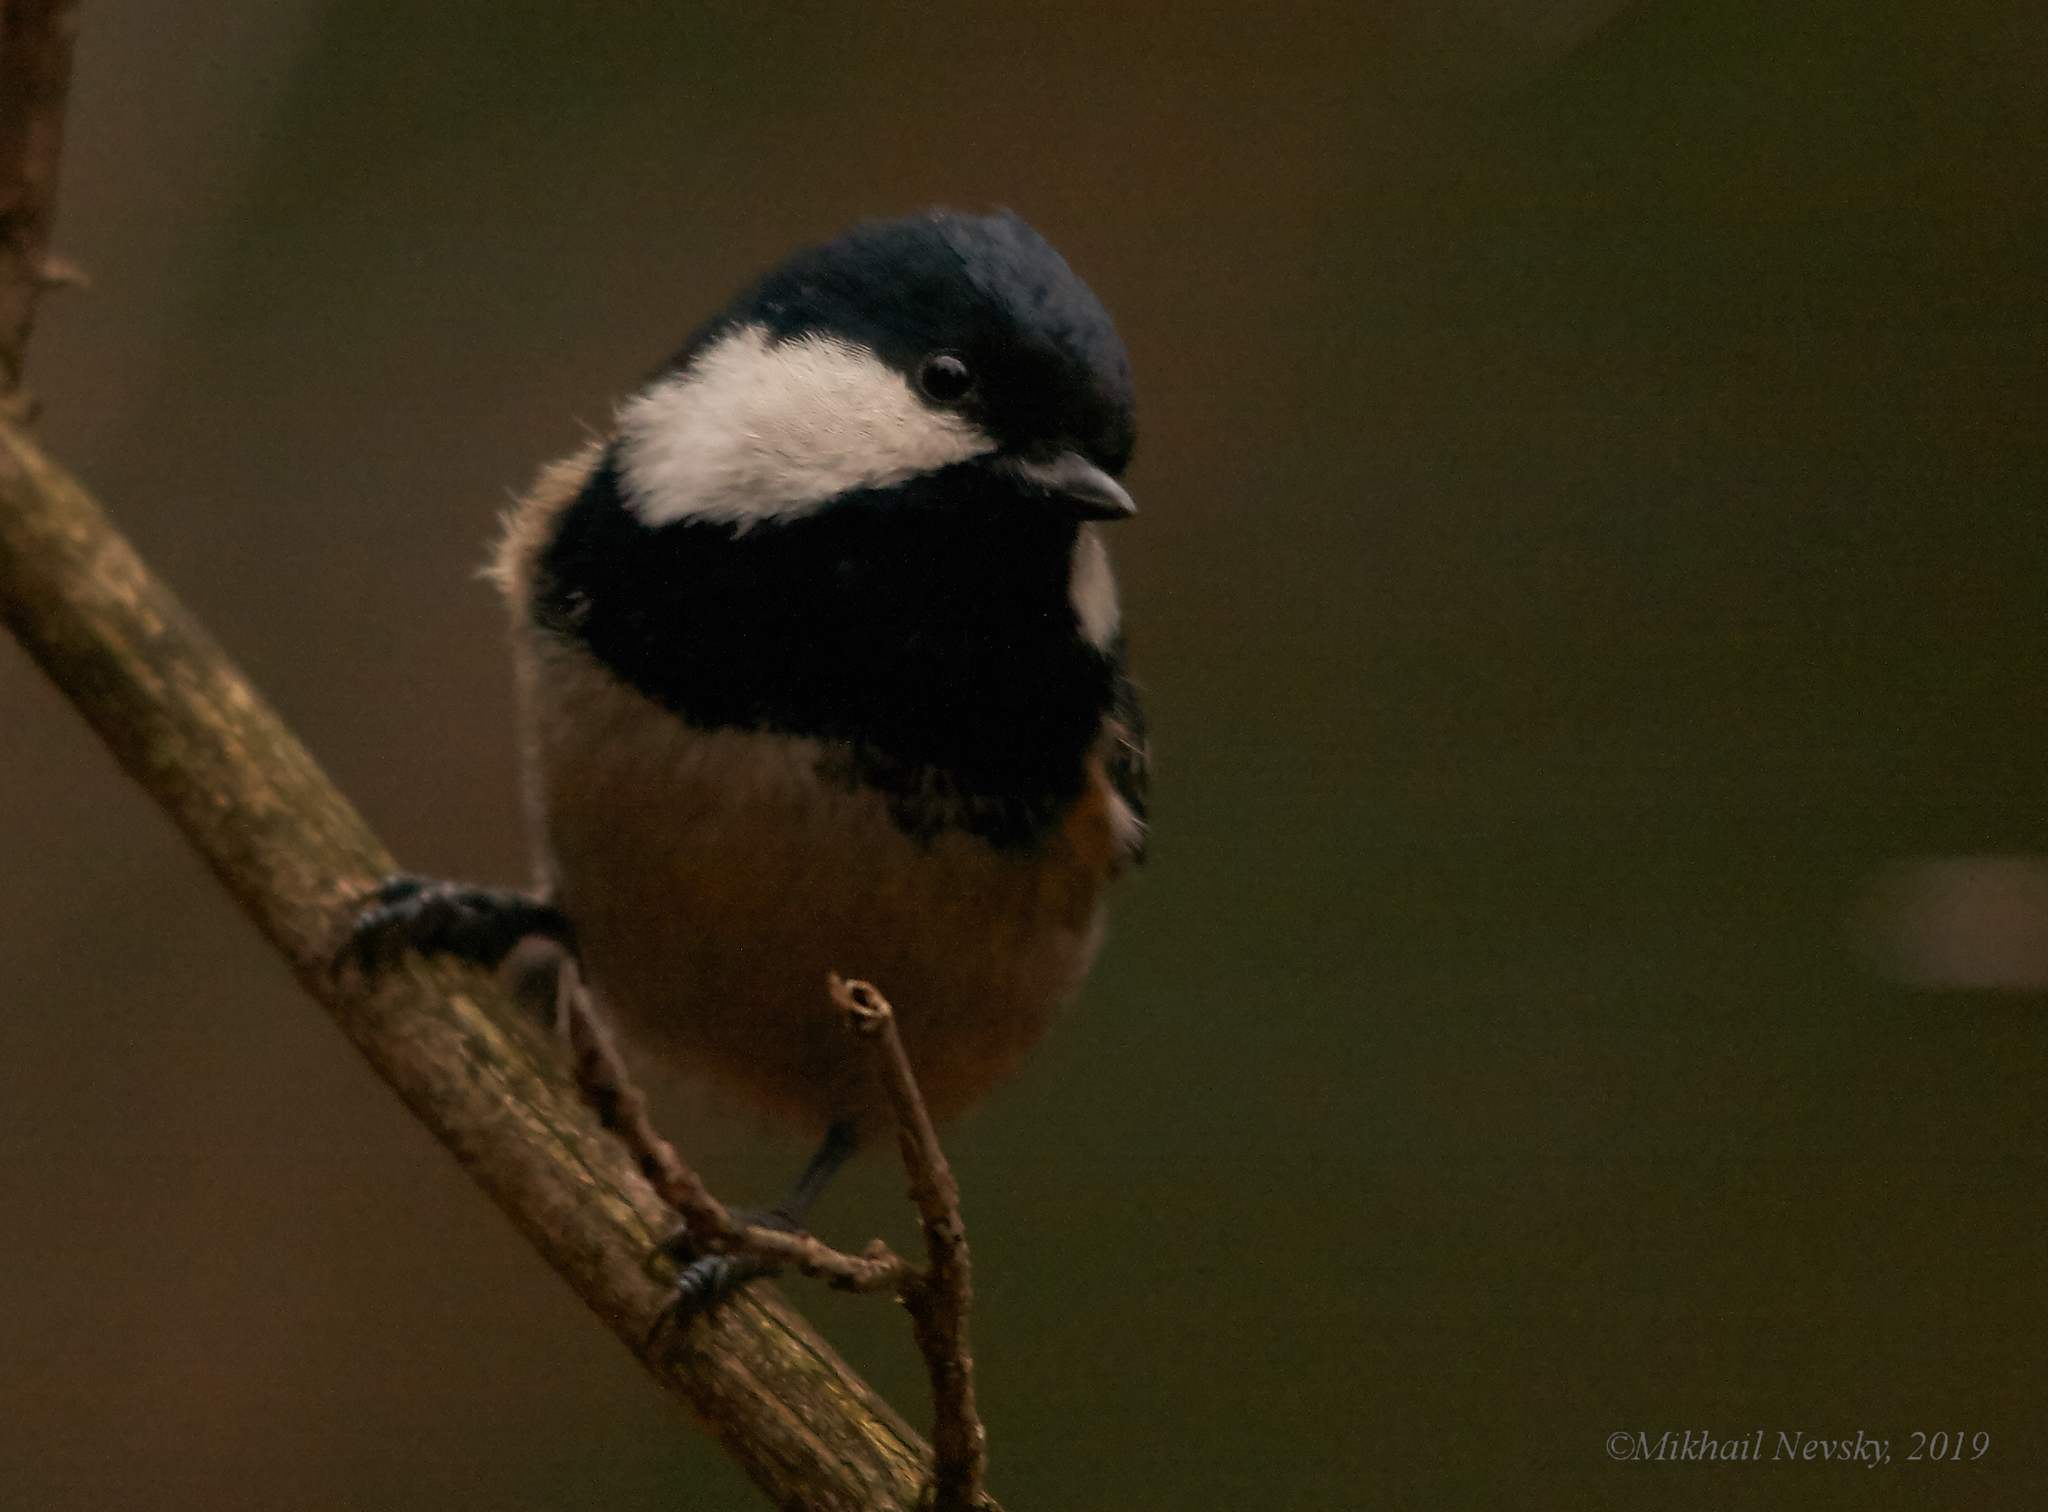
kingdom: Animalia
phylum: Chordata
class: Aves
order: Passeriformes
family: Paridae
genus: Periparus
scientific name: Periparus ater
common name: Coal tit
